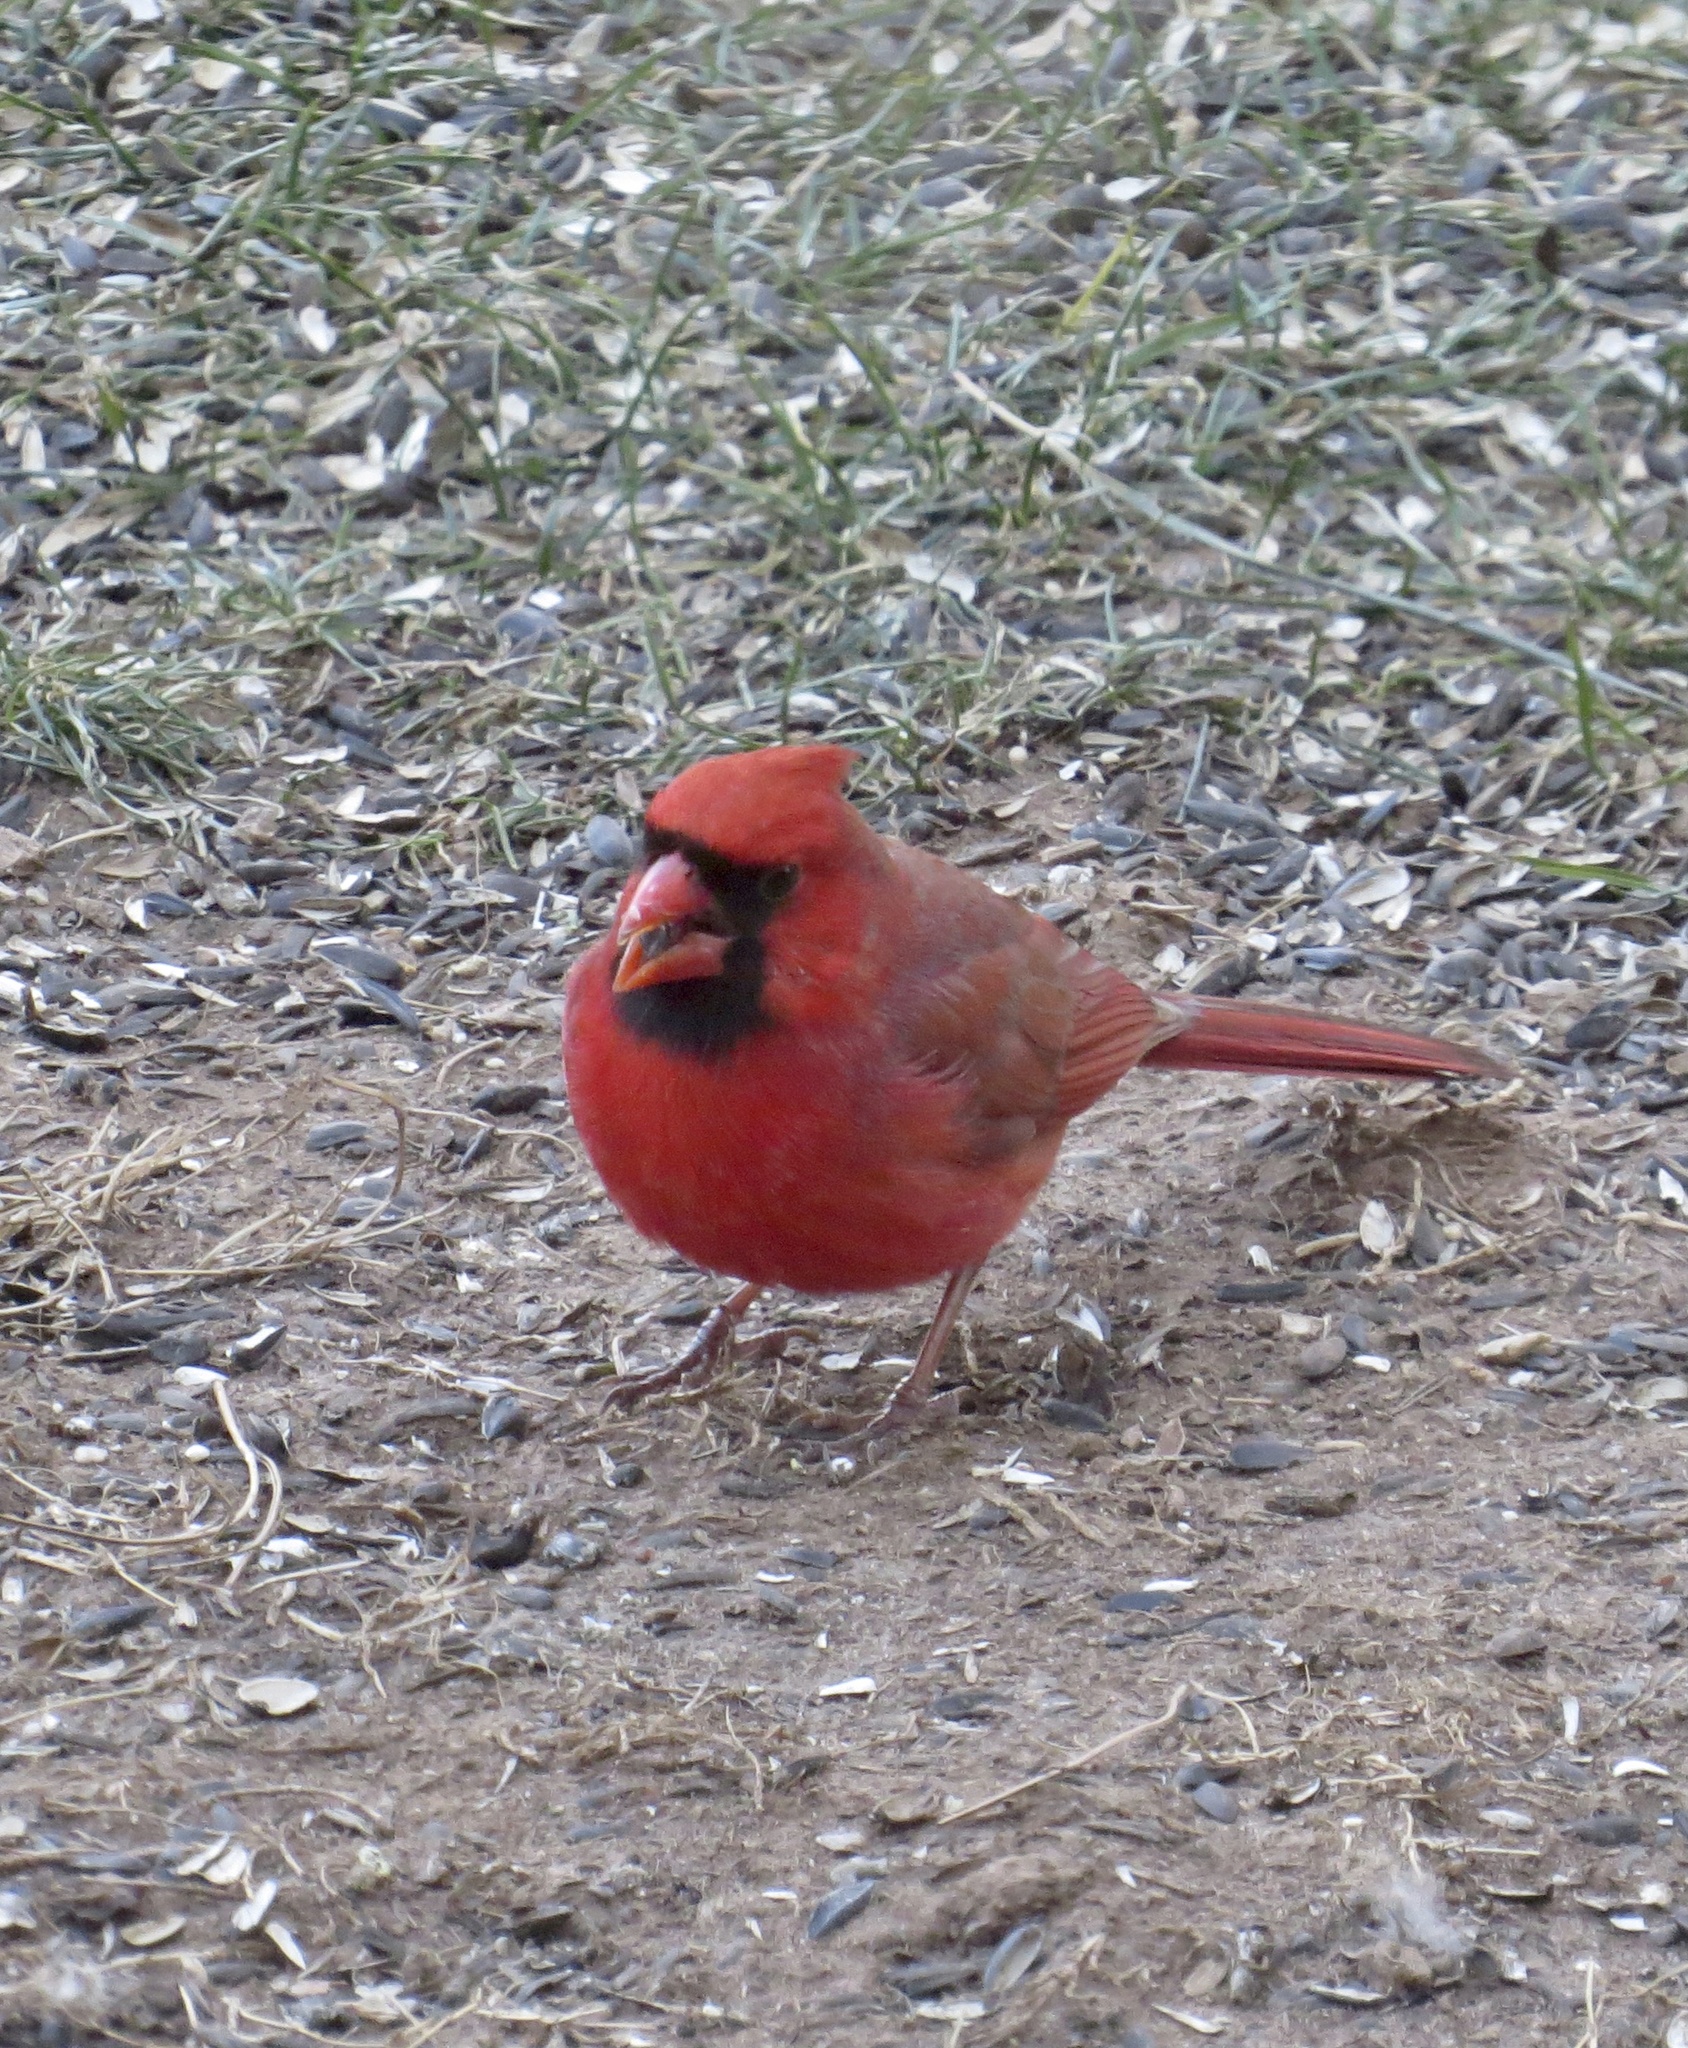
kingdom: Animalia
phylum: Chordata
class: Aves
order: Passeriformes
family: Cardinalidae
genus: Cardinalis
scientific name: Cardinalis cardinalis
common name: Northern cardinal
